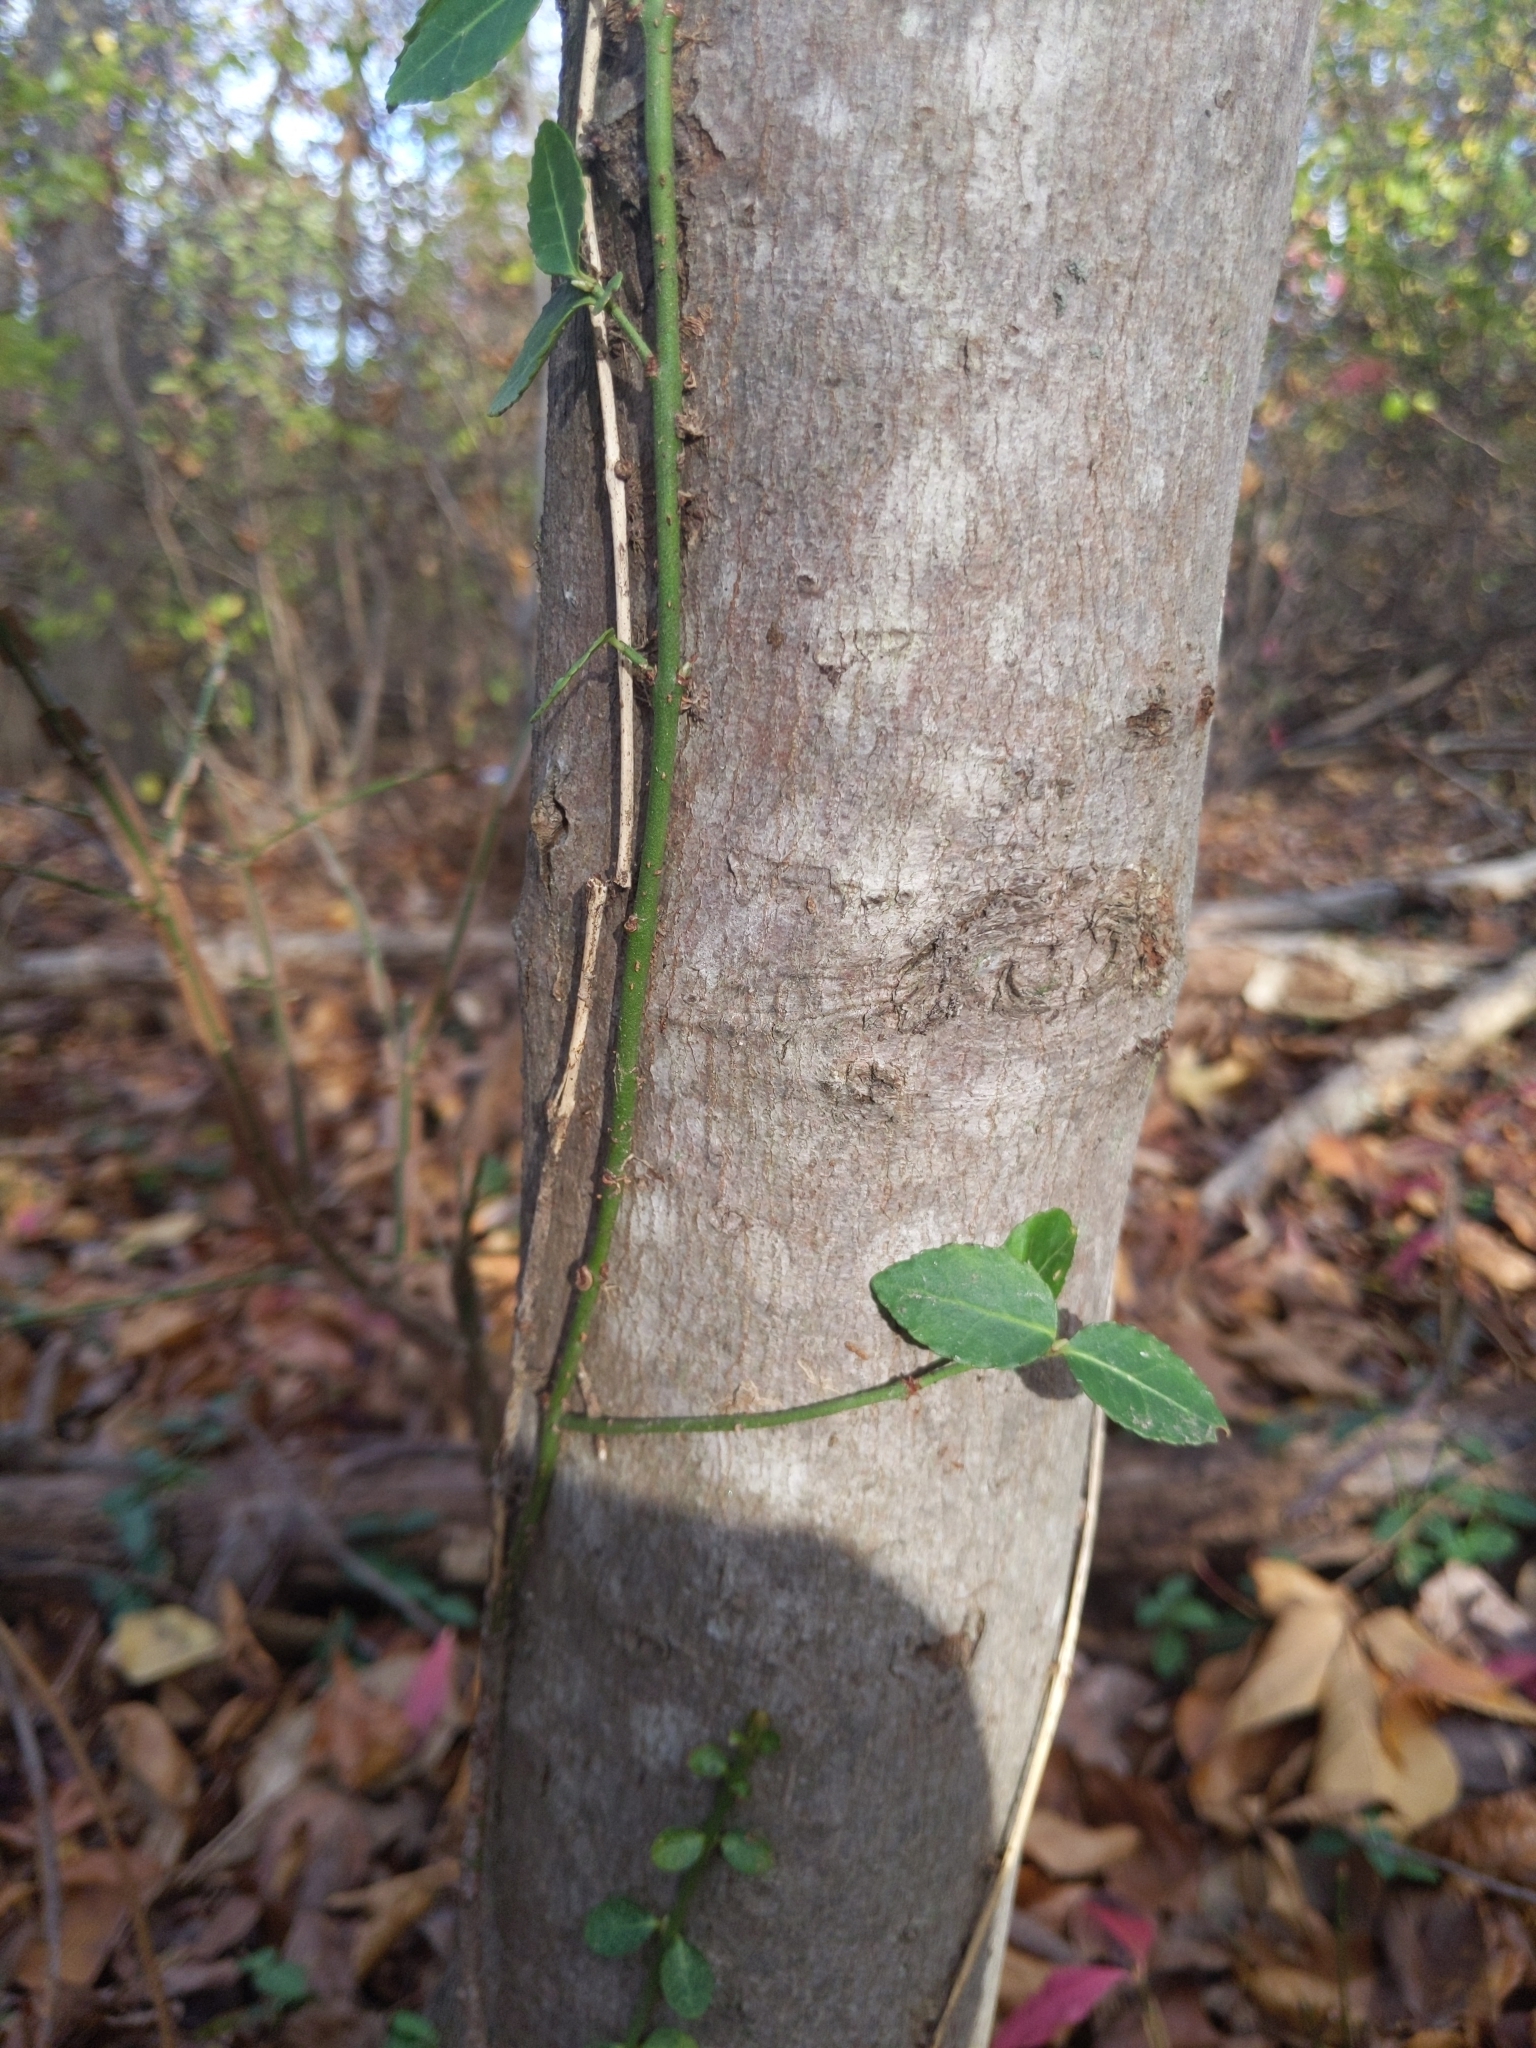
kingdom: Plantae
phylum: Tracheophyta
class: Magnoliopsida
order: Celastrales
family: Celastraceae
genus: Euonymus
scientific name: Euonymus fortunei
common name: Climbing euonymus
